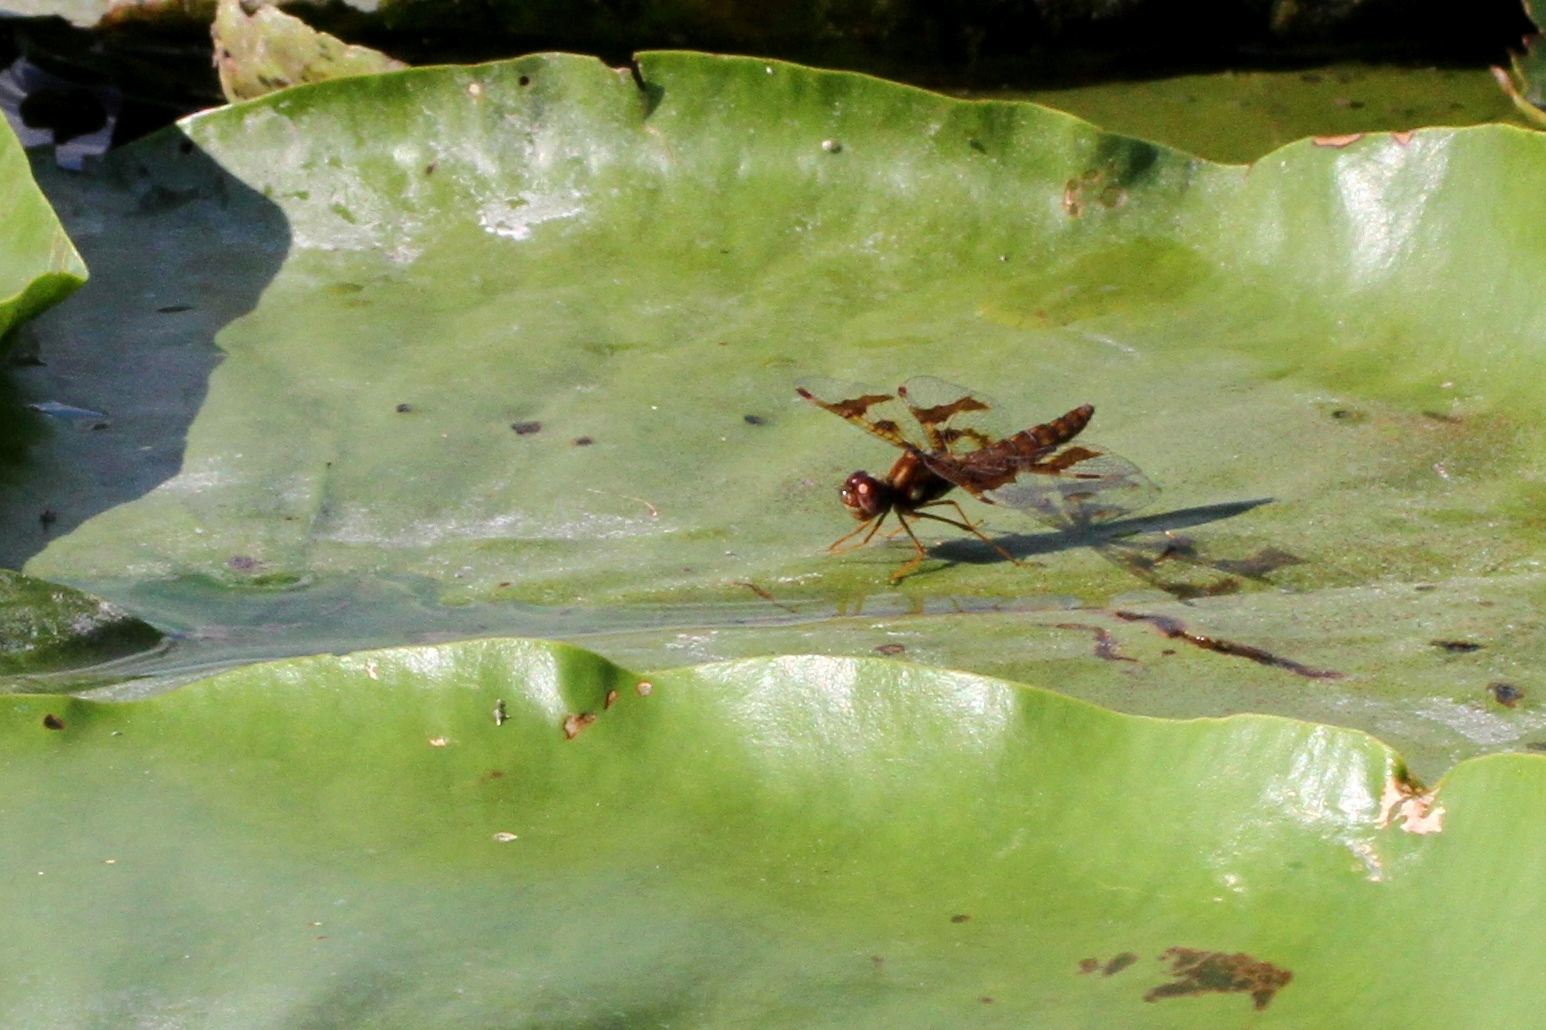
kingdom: Animalia
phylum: Arthropoda
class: Insecta
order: Odonata
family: Libellulidae
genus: Perithemis
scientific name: Perithemis tenera
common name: Eastern amberwing
